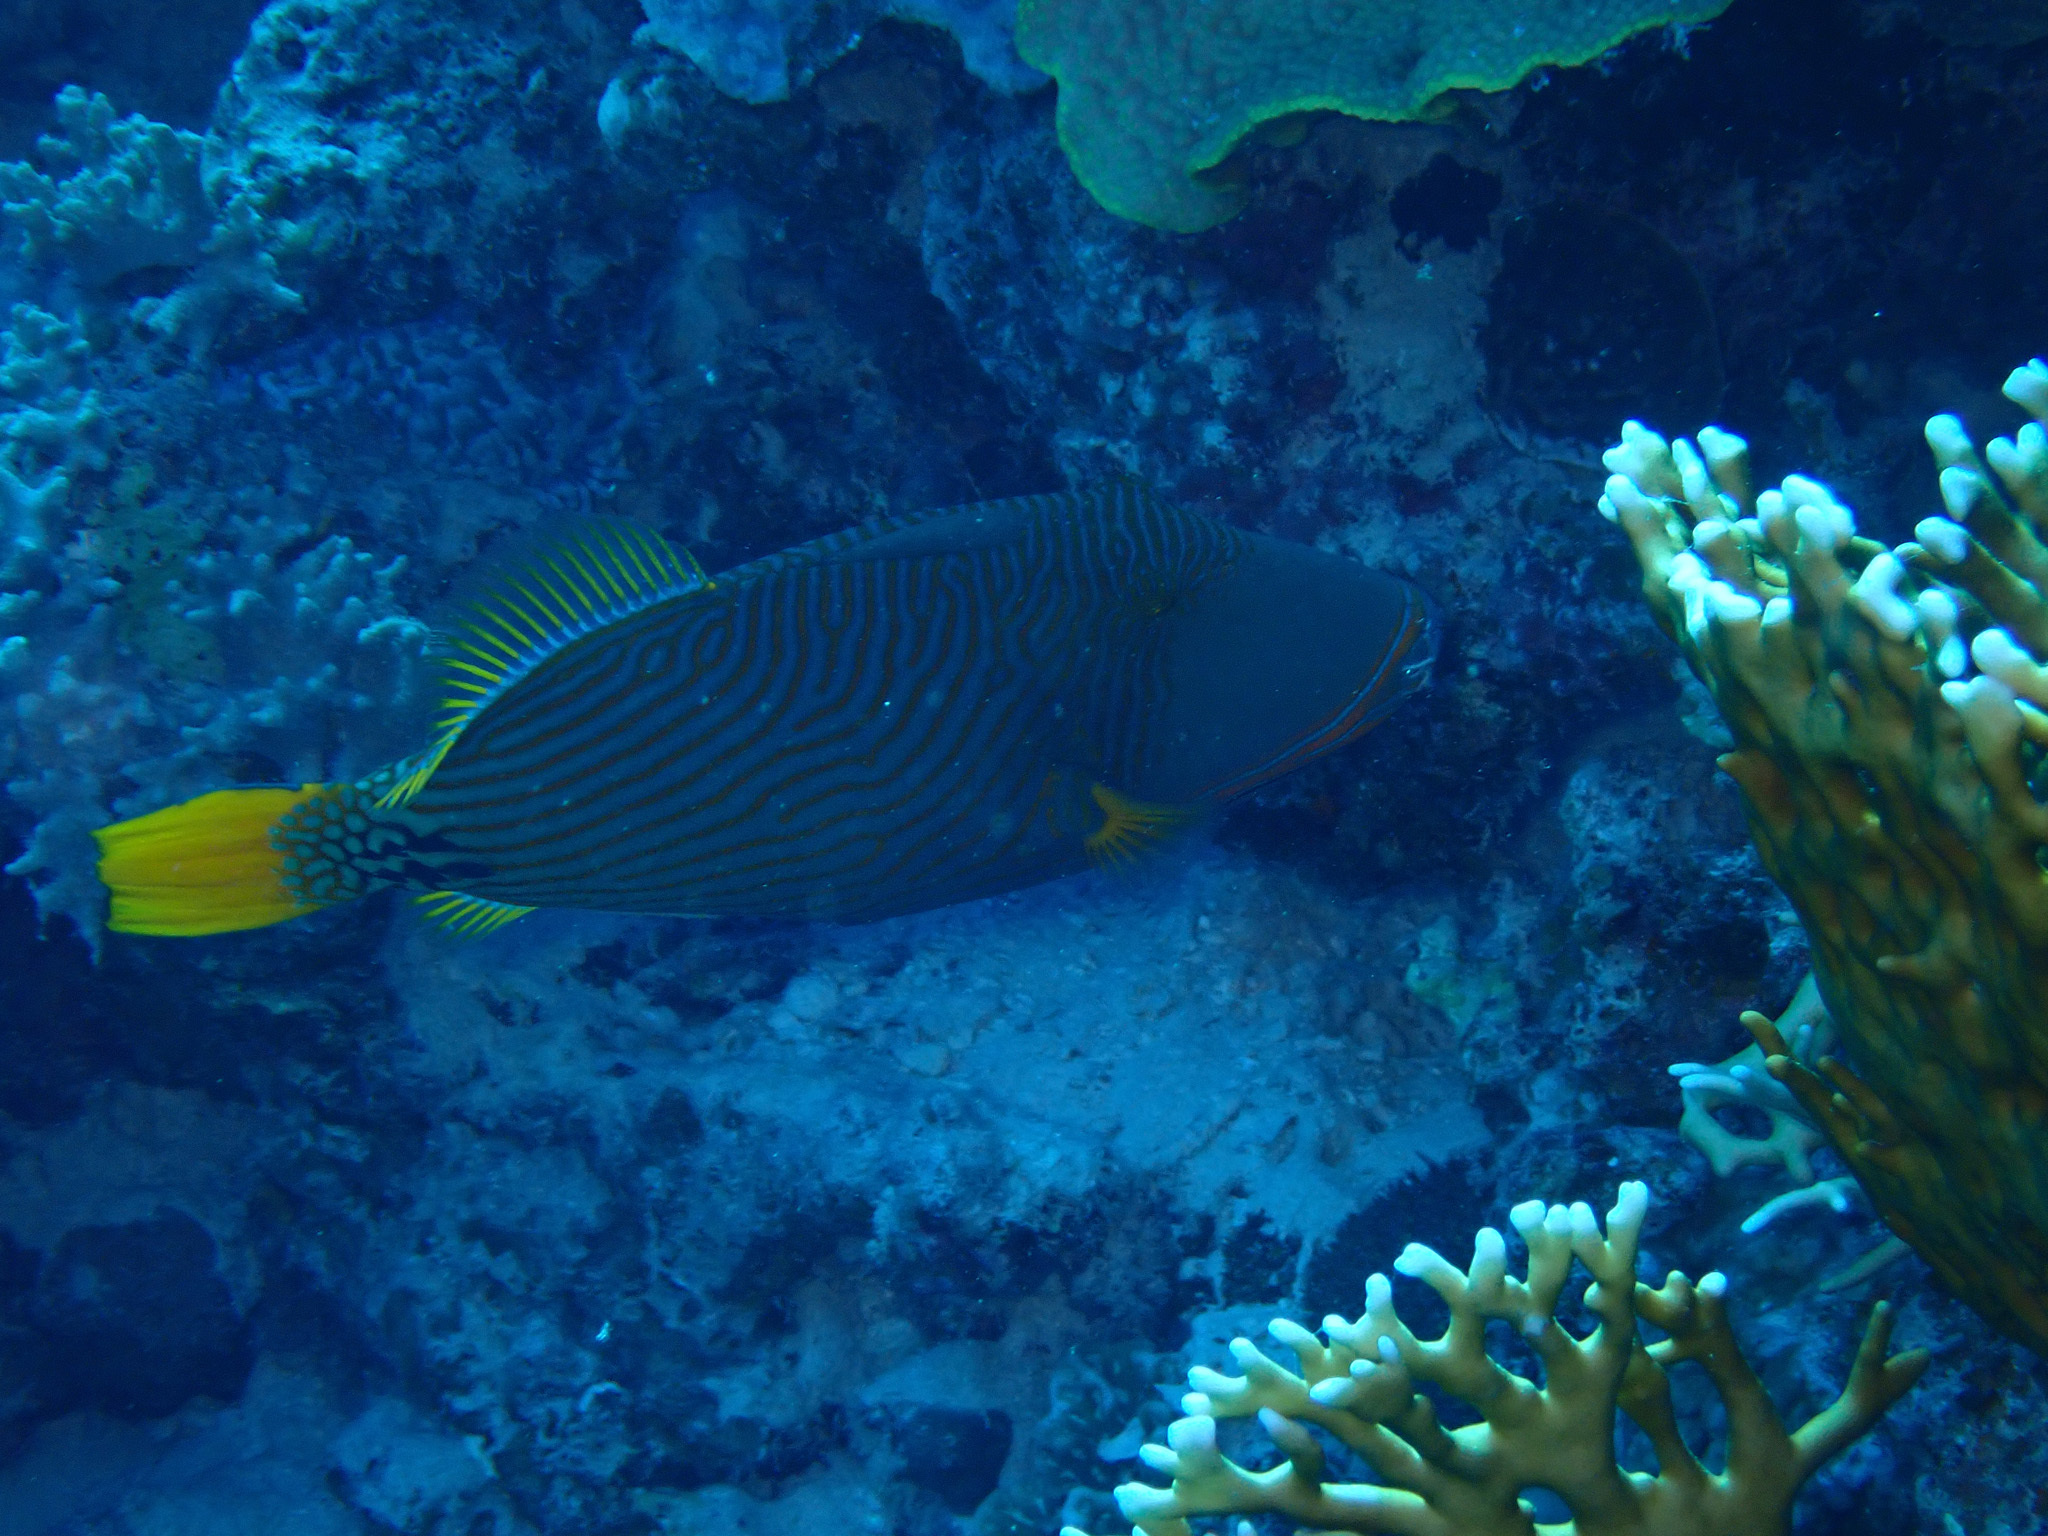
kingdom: Animalia
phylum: Chordata
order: Tetraodontiformes
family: Balistidae
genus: Balistapus
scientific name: Balistapus undulatus
